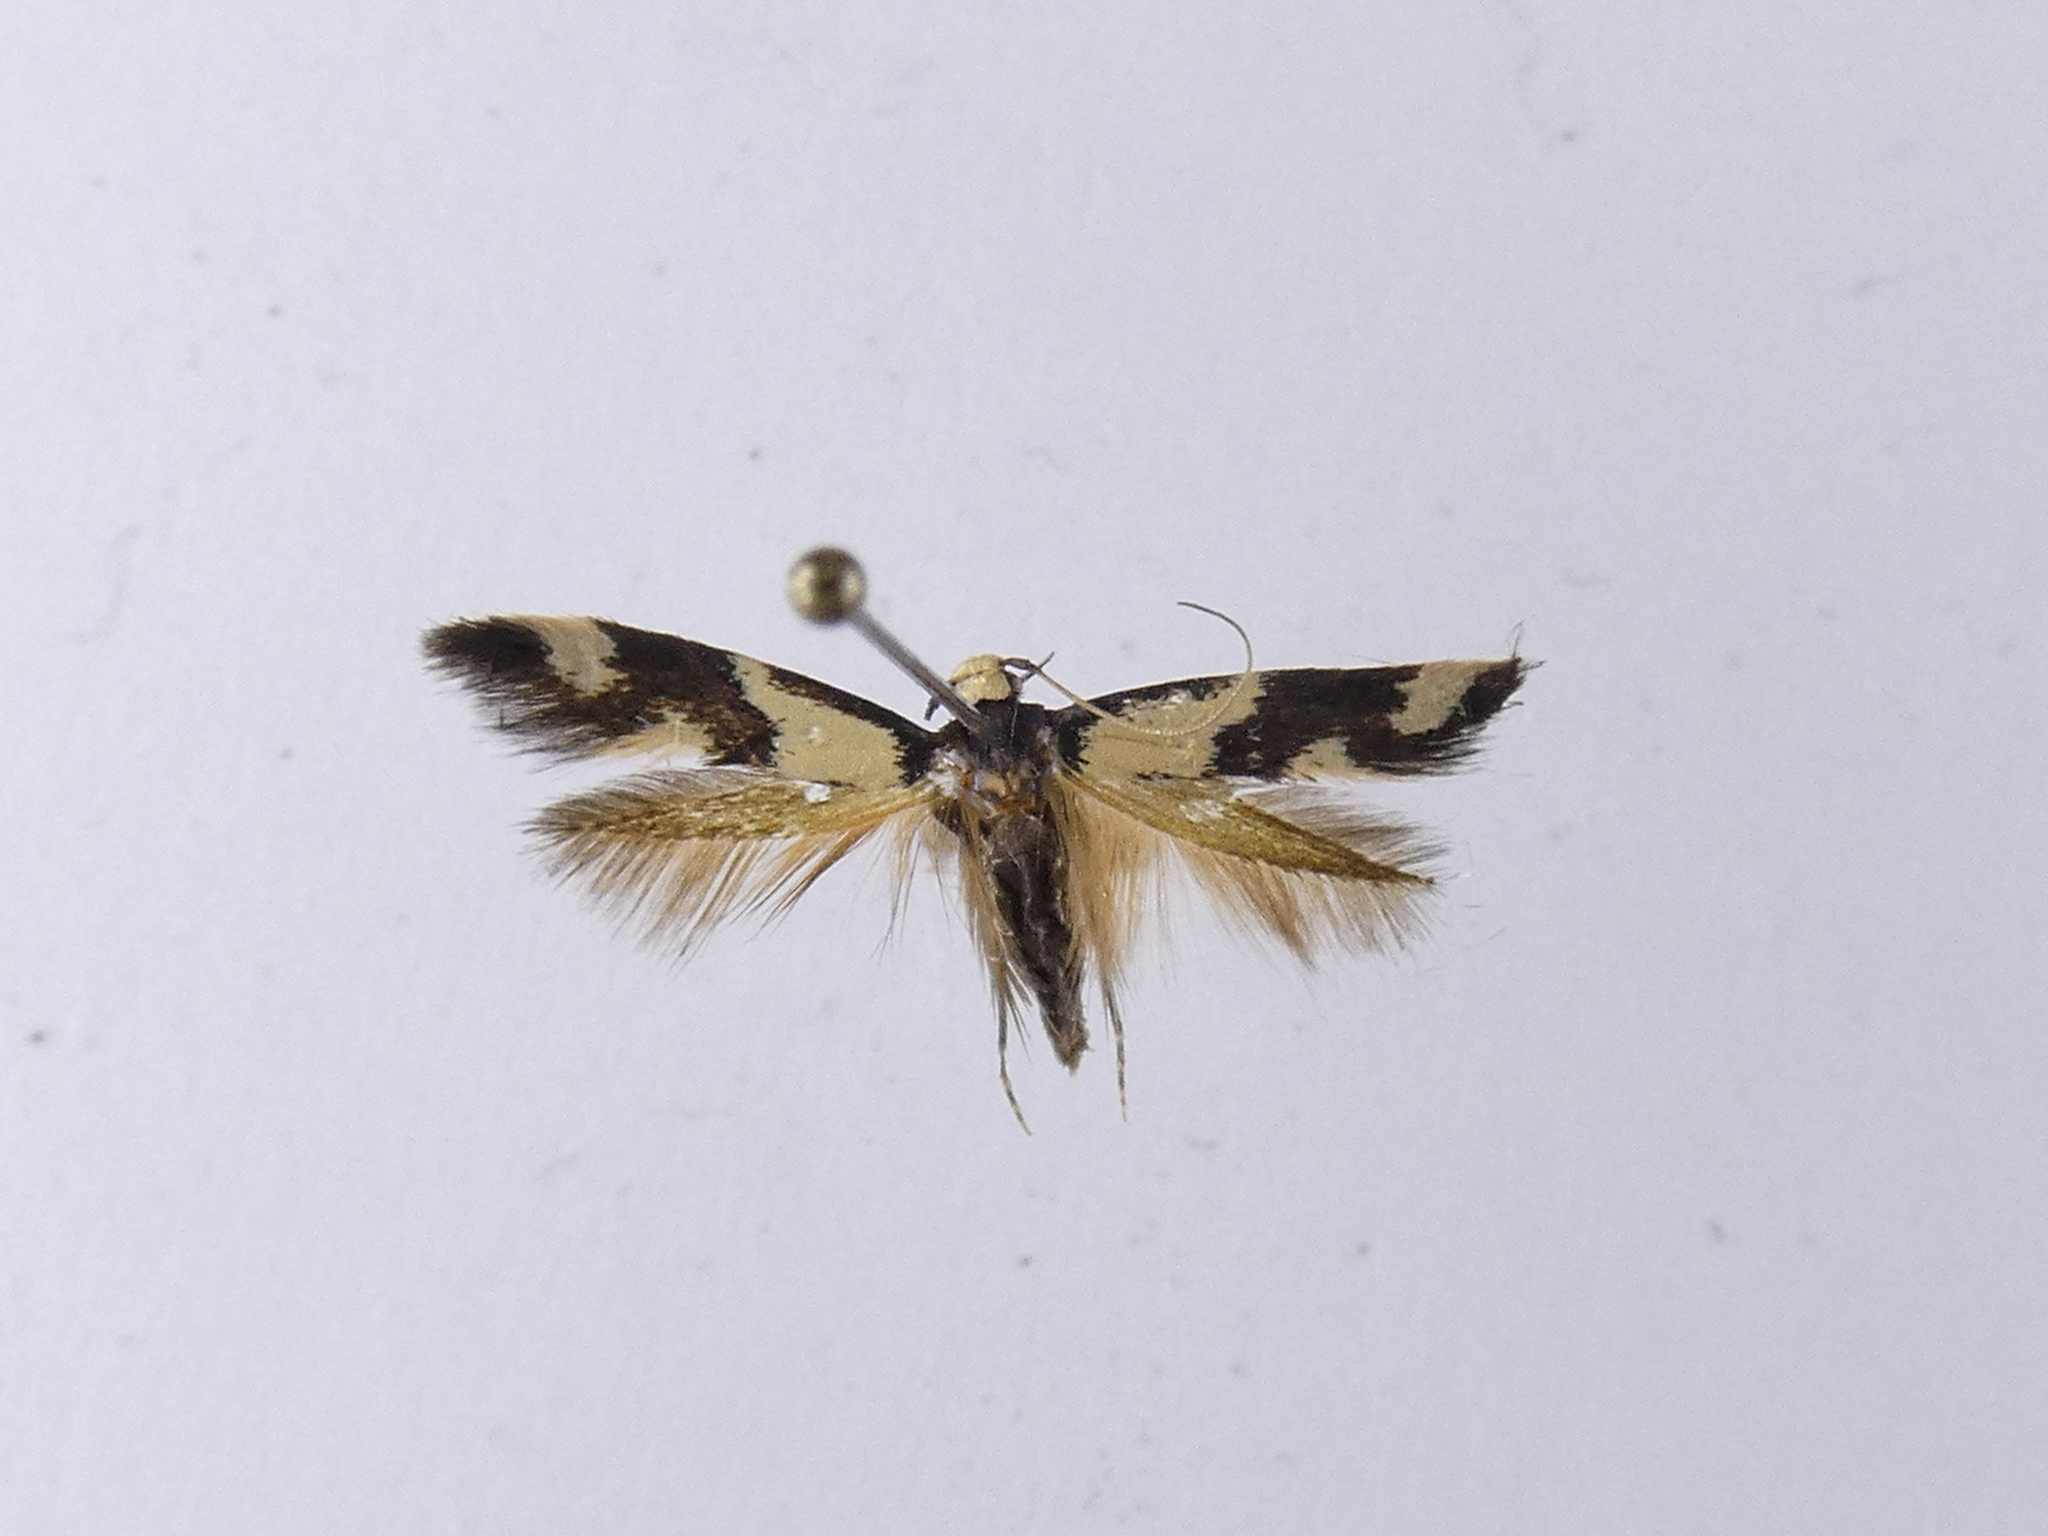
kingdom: Animalia
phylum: Arthropoda
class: Insecta
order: Lepidoptera
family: Tineidae
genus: Opogona
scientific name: Opogona comptella
